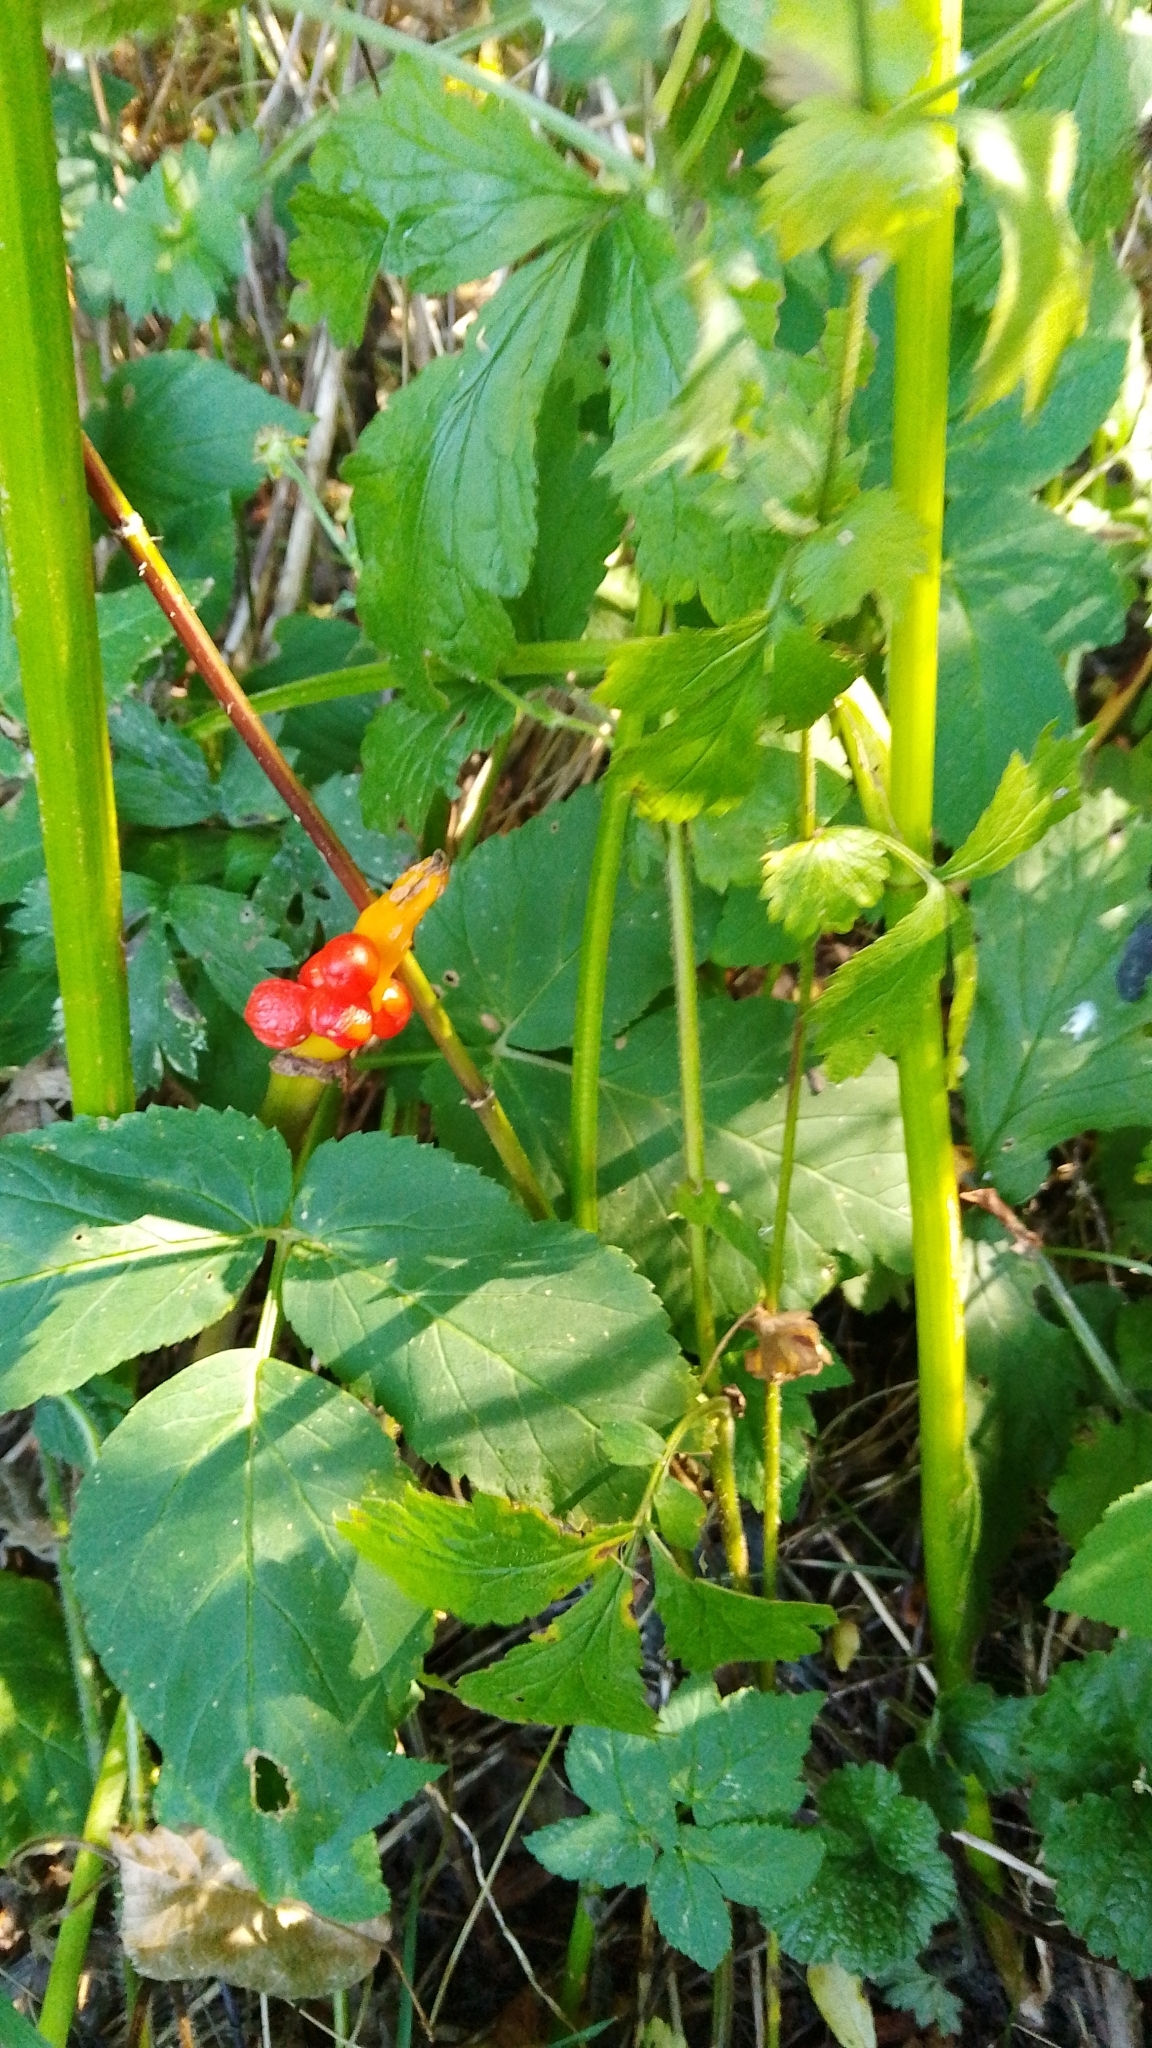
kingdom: Plantae
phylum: Tracheophyta
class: Liliopsida
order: Alismatales
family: Araceae
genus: Arum
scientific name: Arum maculatum
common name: Lords-and-ladies
